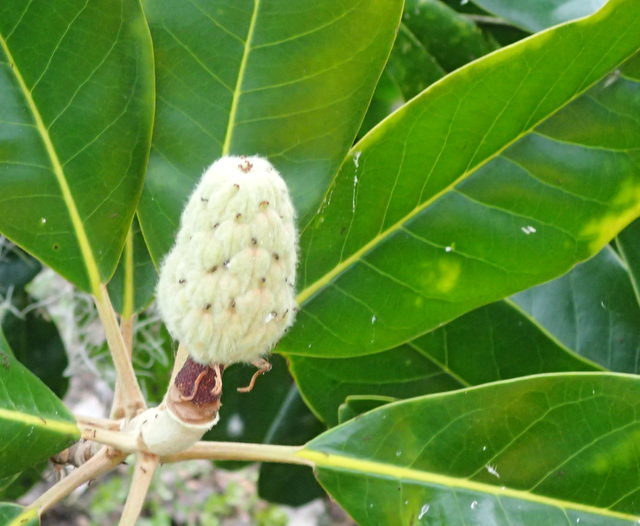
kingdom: Plantae
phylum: Tracheophyta
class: Magnoliopsida
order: Magnoliales
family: Magnoliaceae
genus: Magnolia
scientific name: Magnolia grandiflora
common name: Southern magnolia
